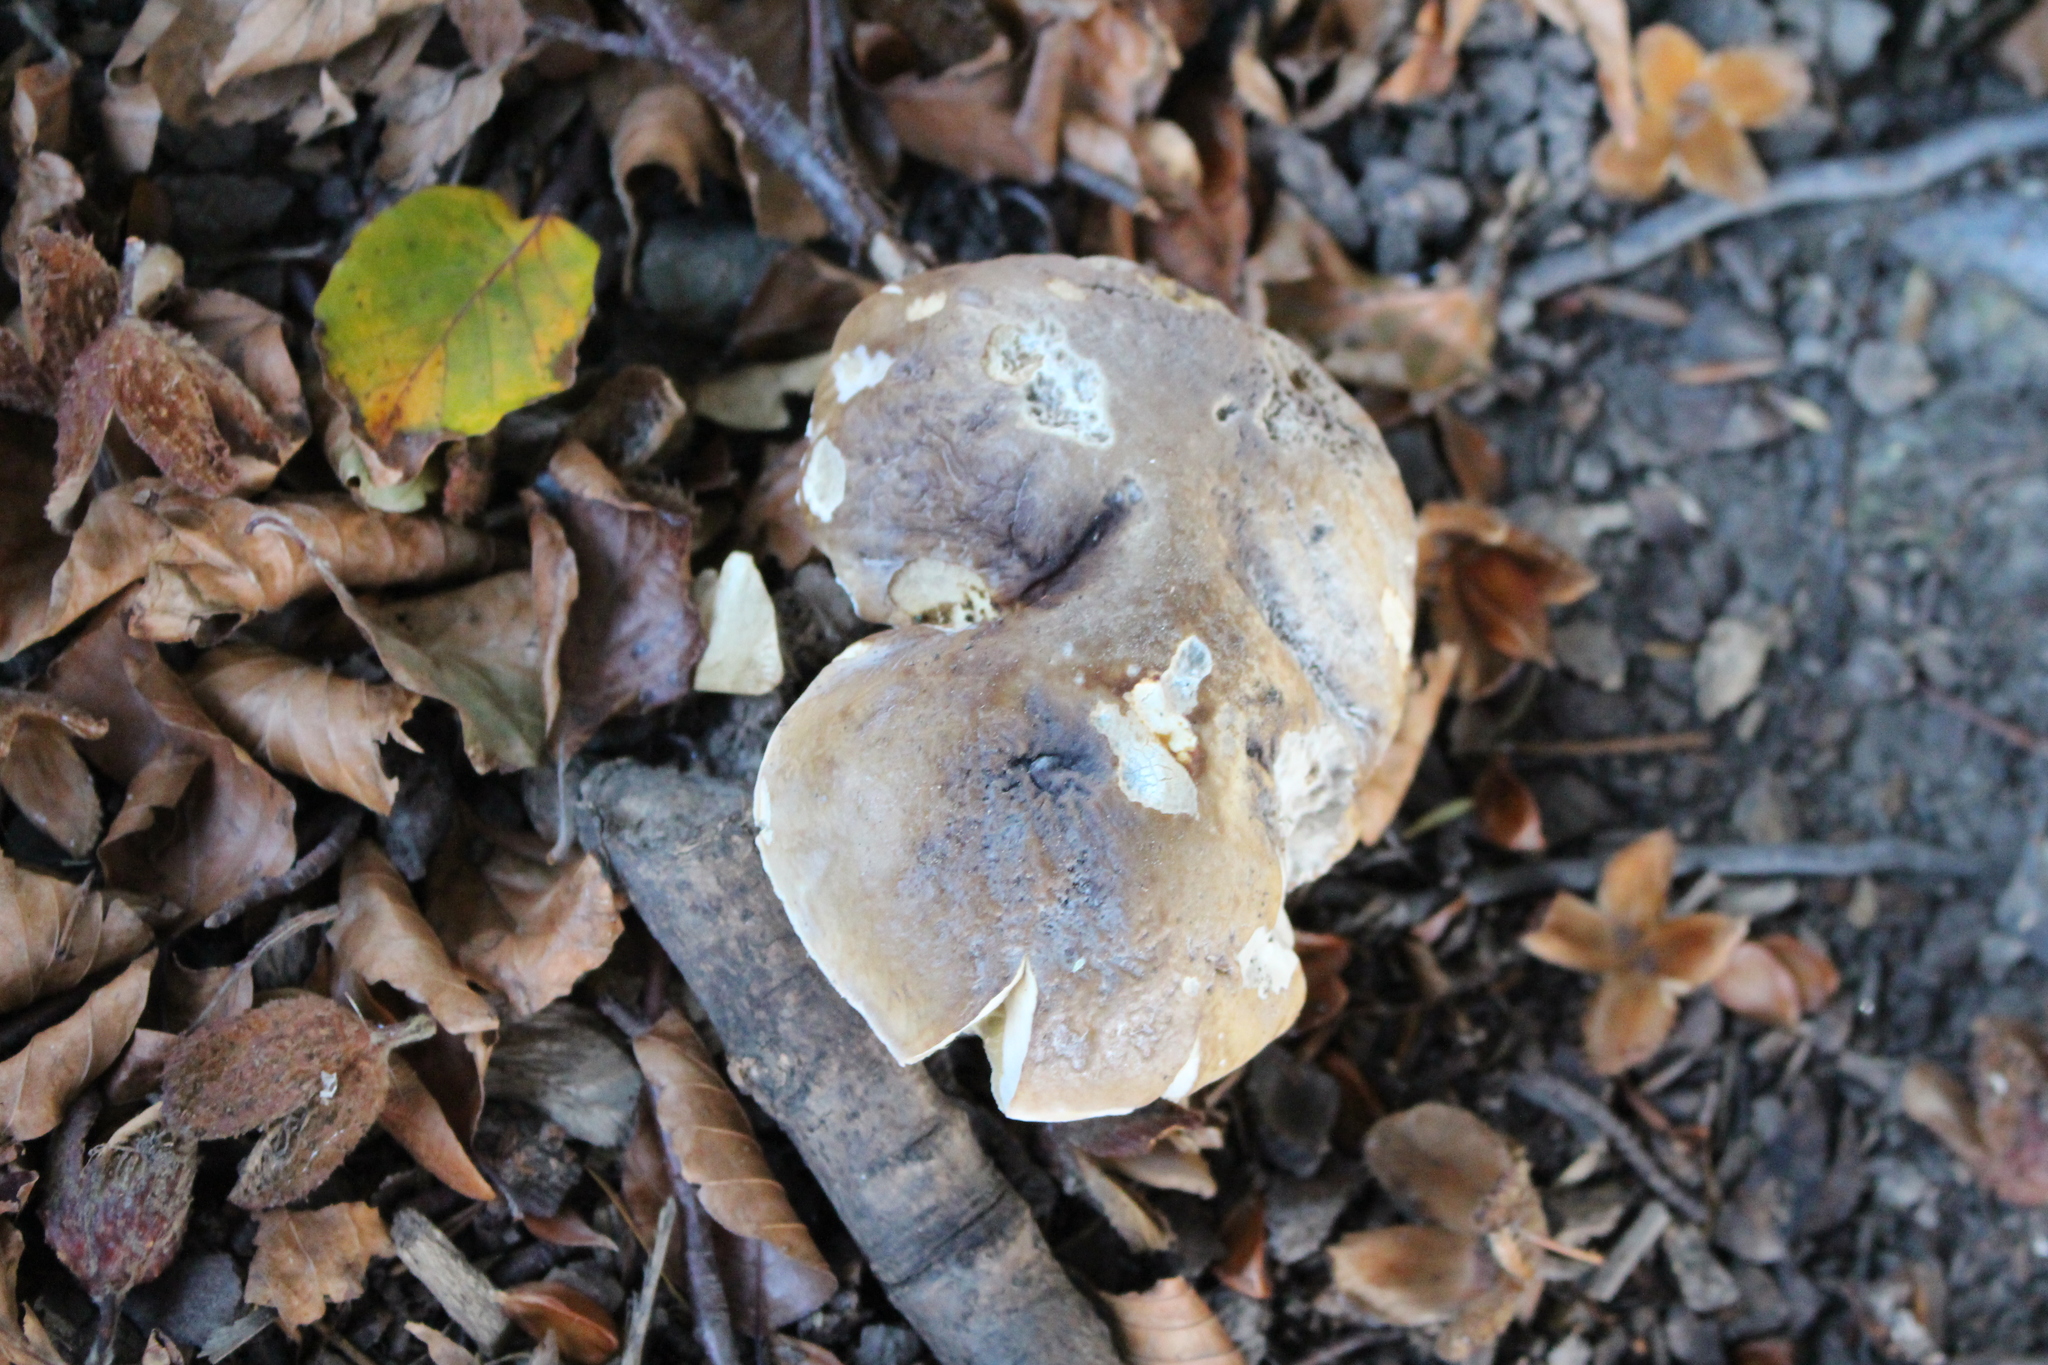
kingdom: Fungi
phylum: Basidiomycota
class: Agaricomycetes
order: Boletales
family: Boletaceae
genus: Boletus
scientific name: Boletus edulis
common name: Cep
